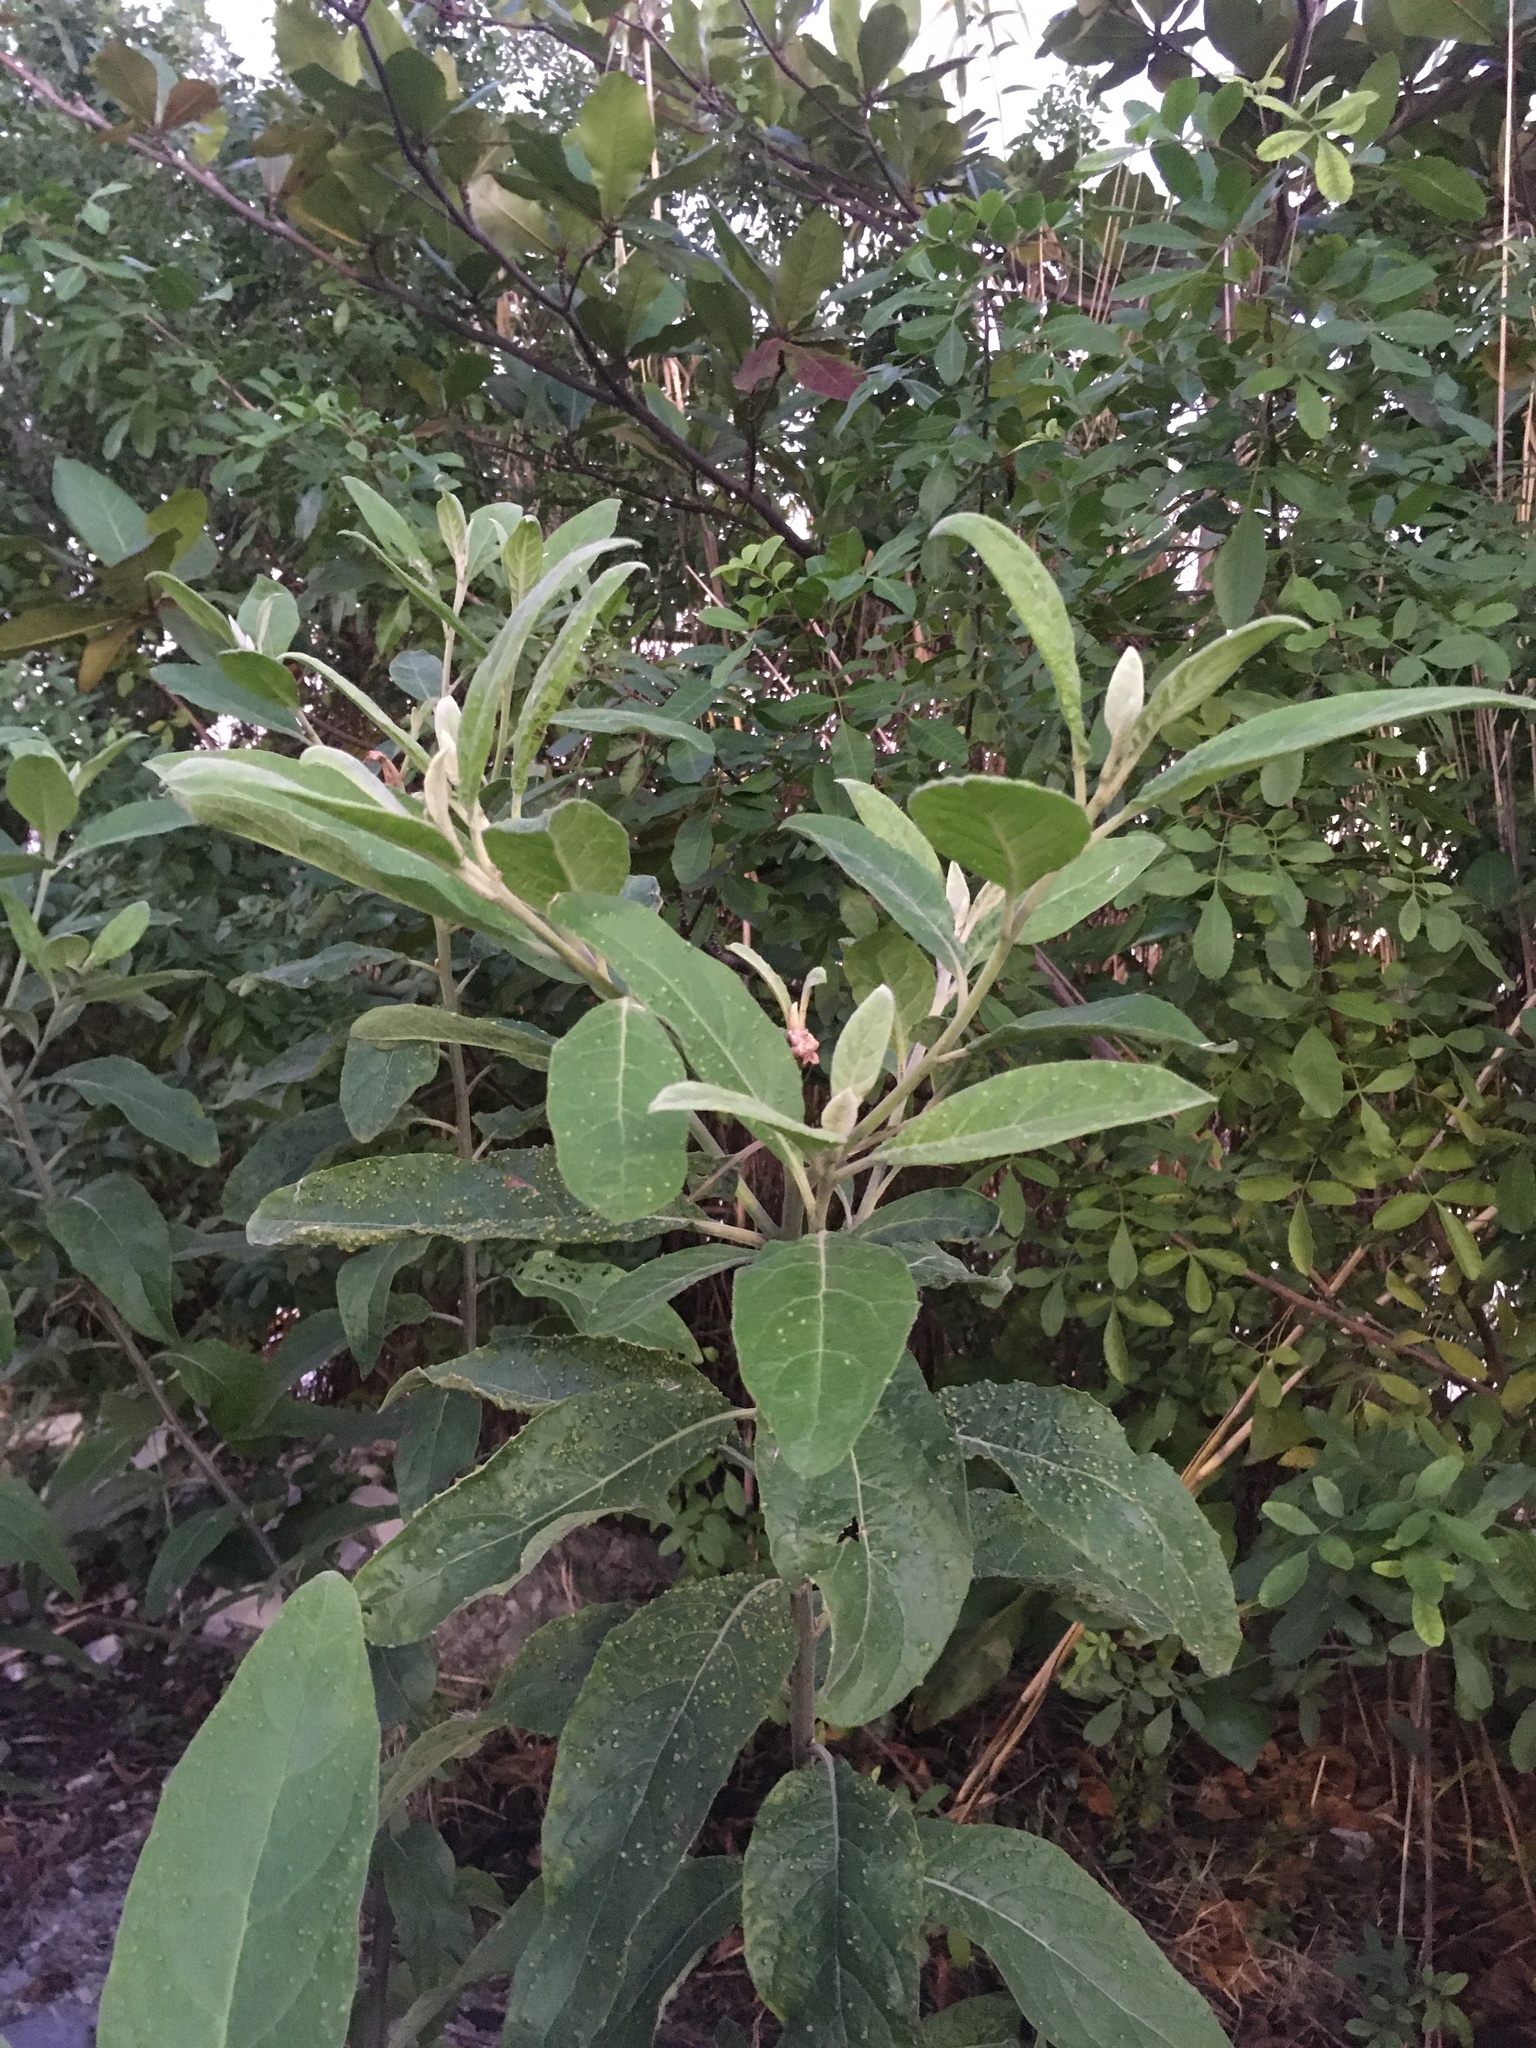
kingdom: Plantae
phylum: Tracheophyta
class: Magnoliopsida
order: Asterales
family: Asteraceae
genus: Pluchea
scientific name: Pluchea carolinensis
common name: Marsh fleabane
